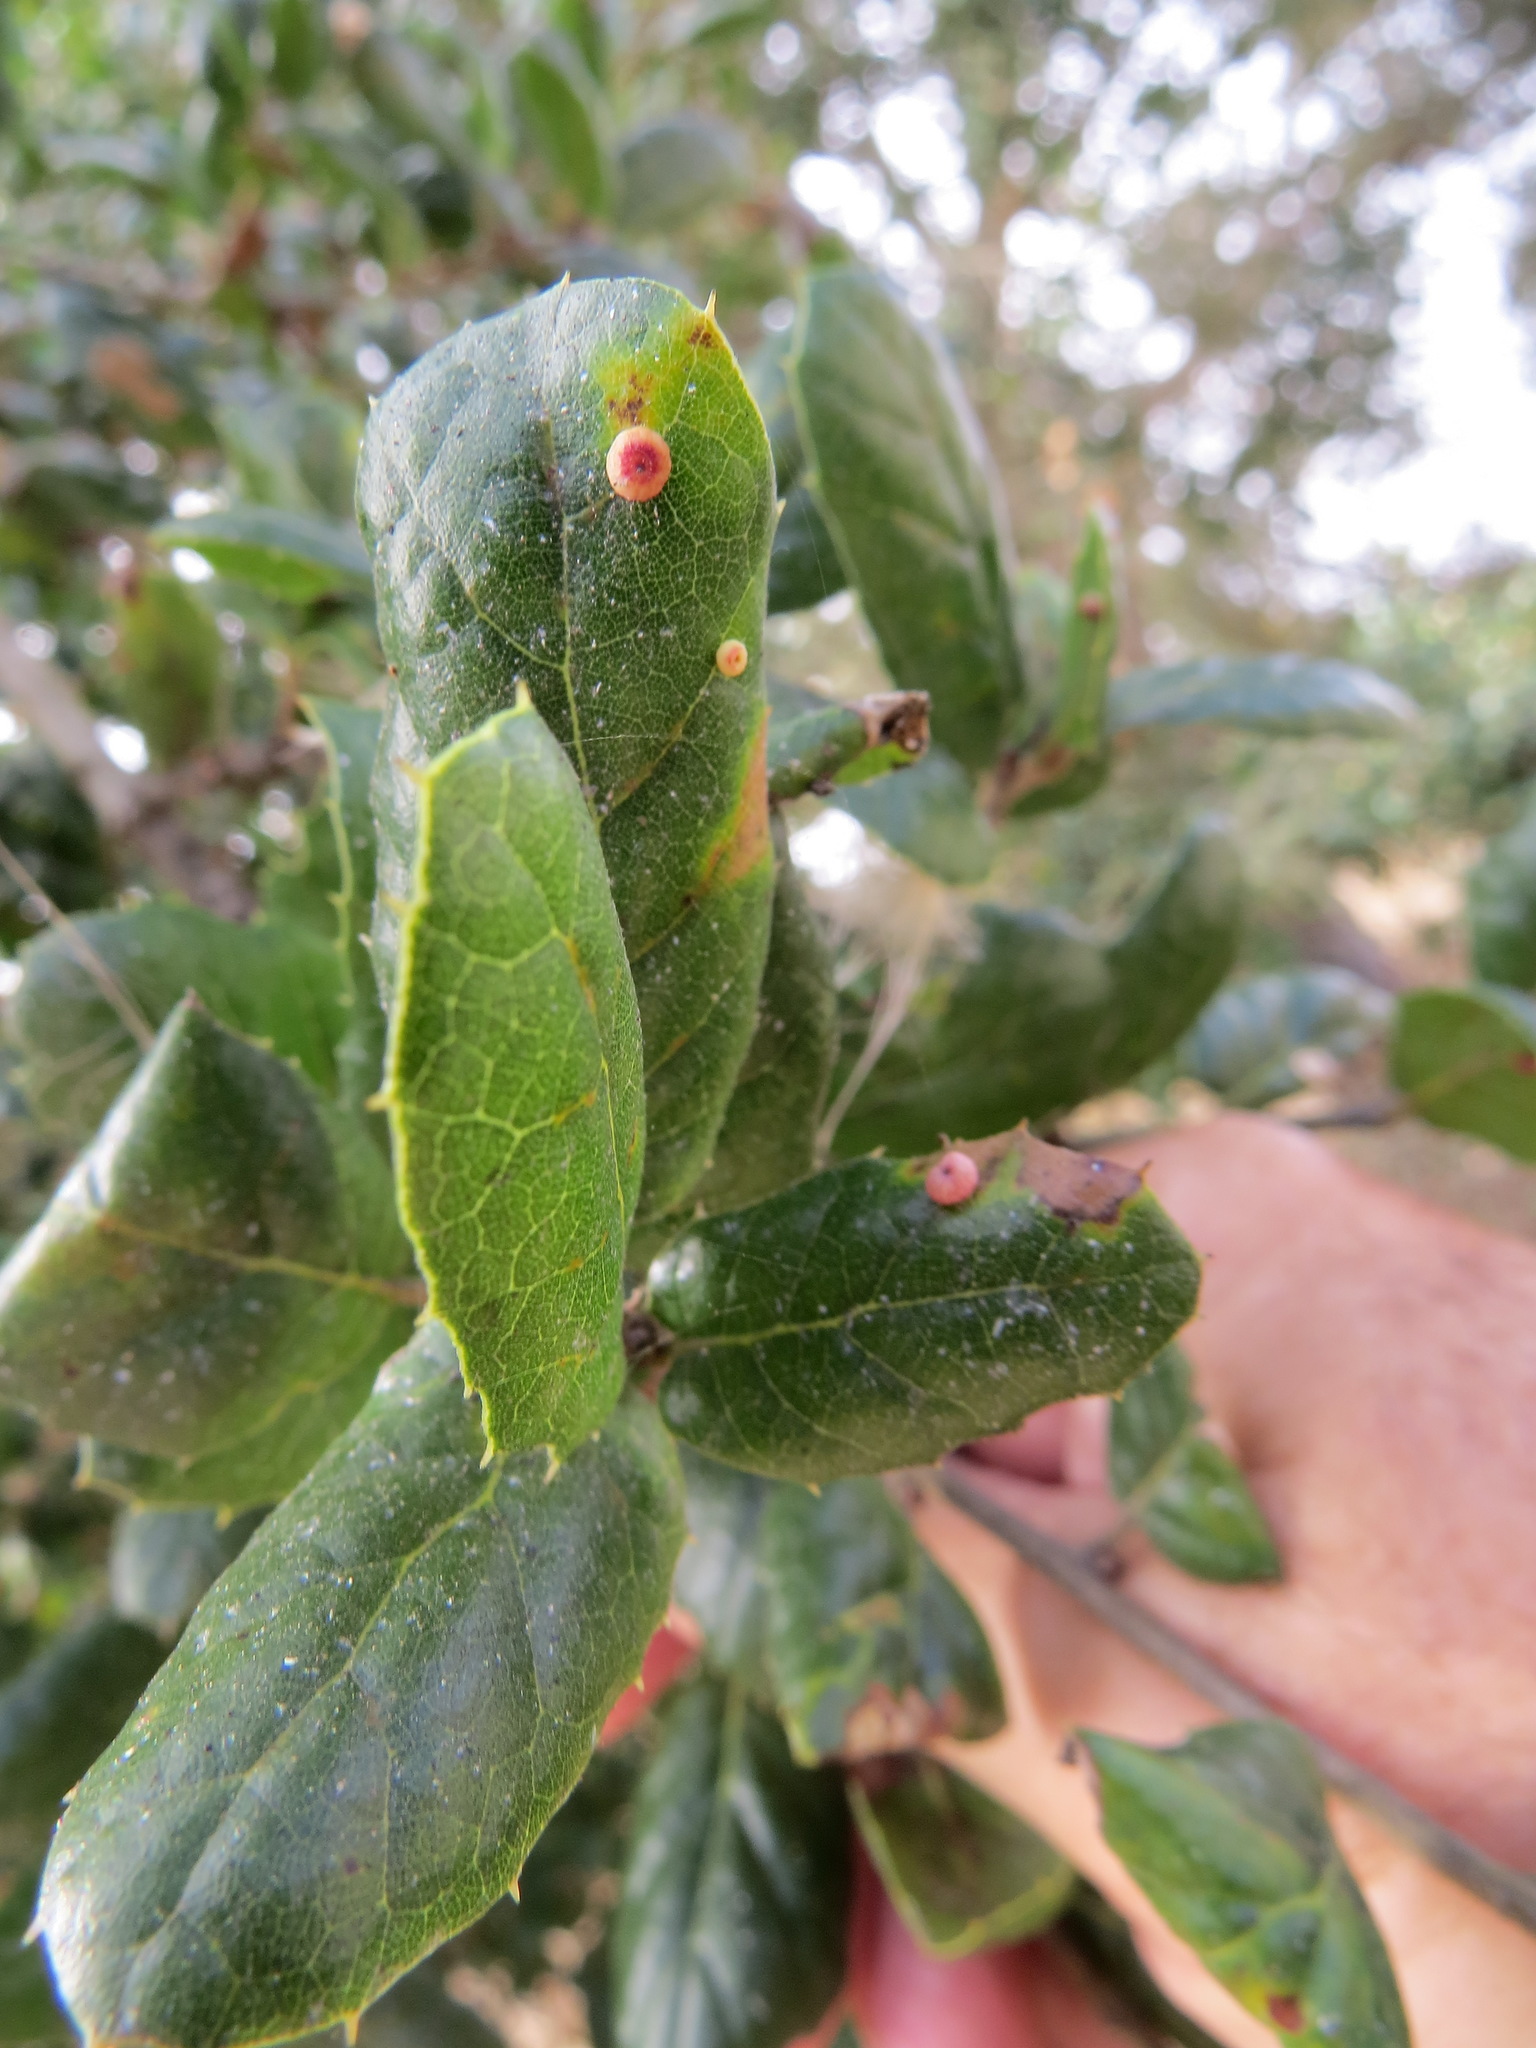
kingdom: Plantae
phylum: Tracheophyta
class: Magnoliopsida
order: Fagales
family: Fagaceae
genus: Quercus
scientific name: Quercus agrifolia
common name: California live oak
